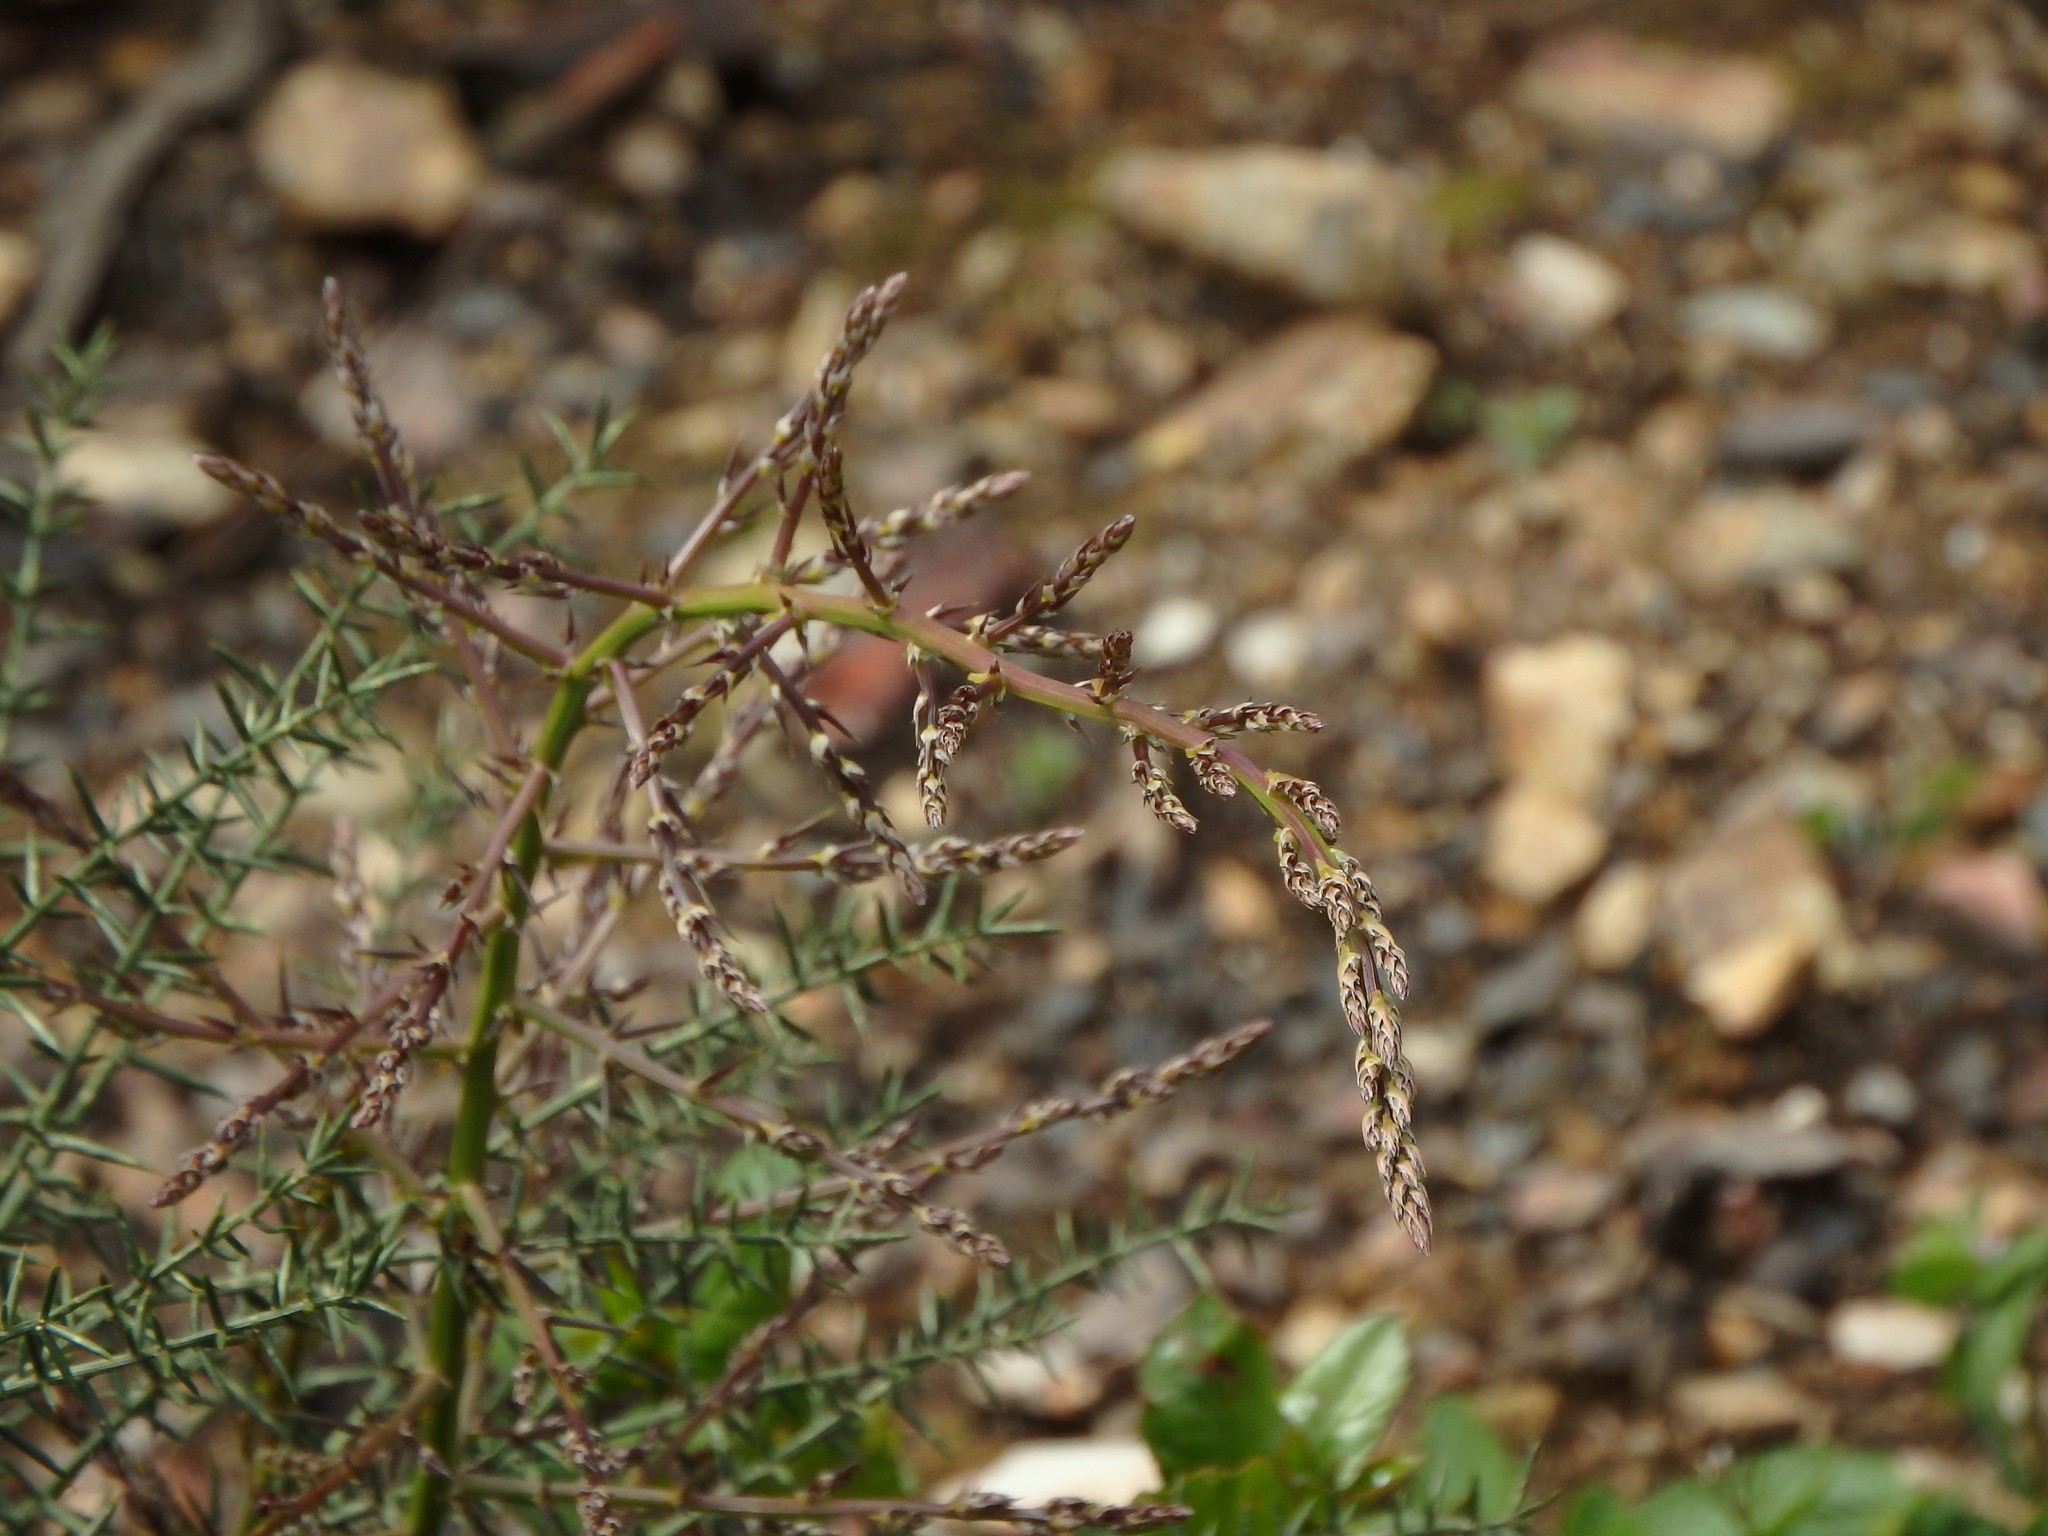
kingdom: Plantae
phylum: Tracheophyta
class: Liliopsida
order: Asparagales
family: Asparagaceae
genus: Asparagus
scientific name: Asparagus aphyllus
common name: Mediterranean asparagus
